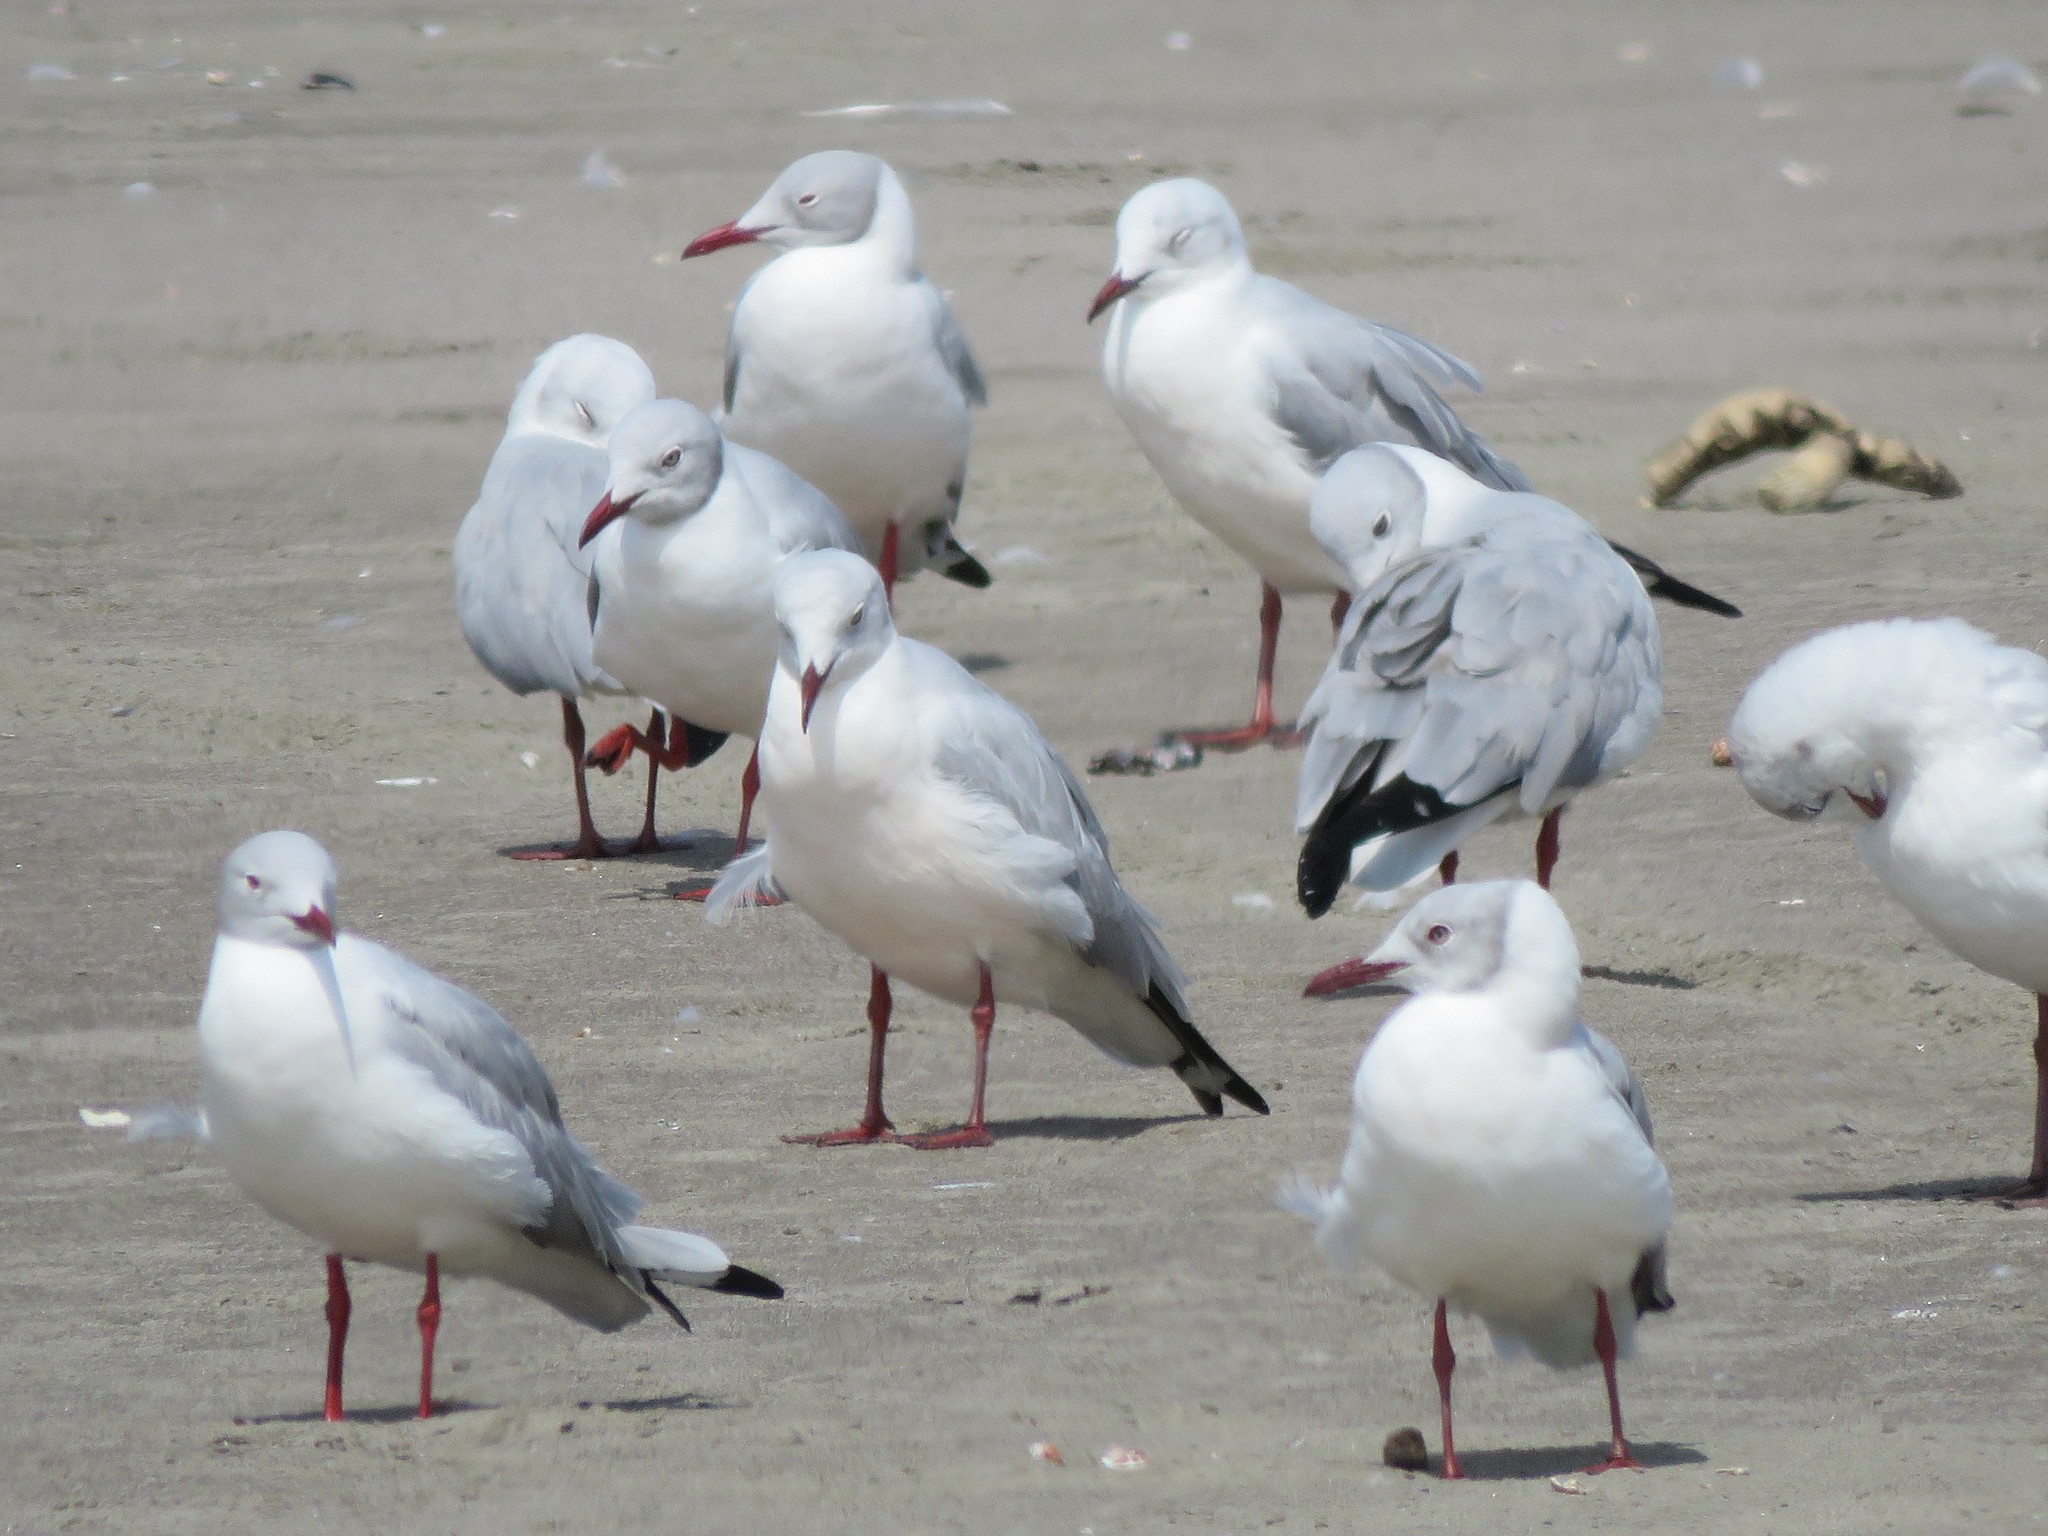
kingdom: Animalia
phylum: Chordata
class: Aves
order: Charadriiformes
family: Laridae
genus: Chroicocephalus
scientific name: Chroicocephalus cirrocephalus
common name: Grey-headed gull
